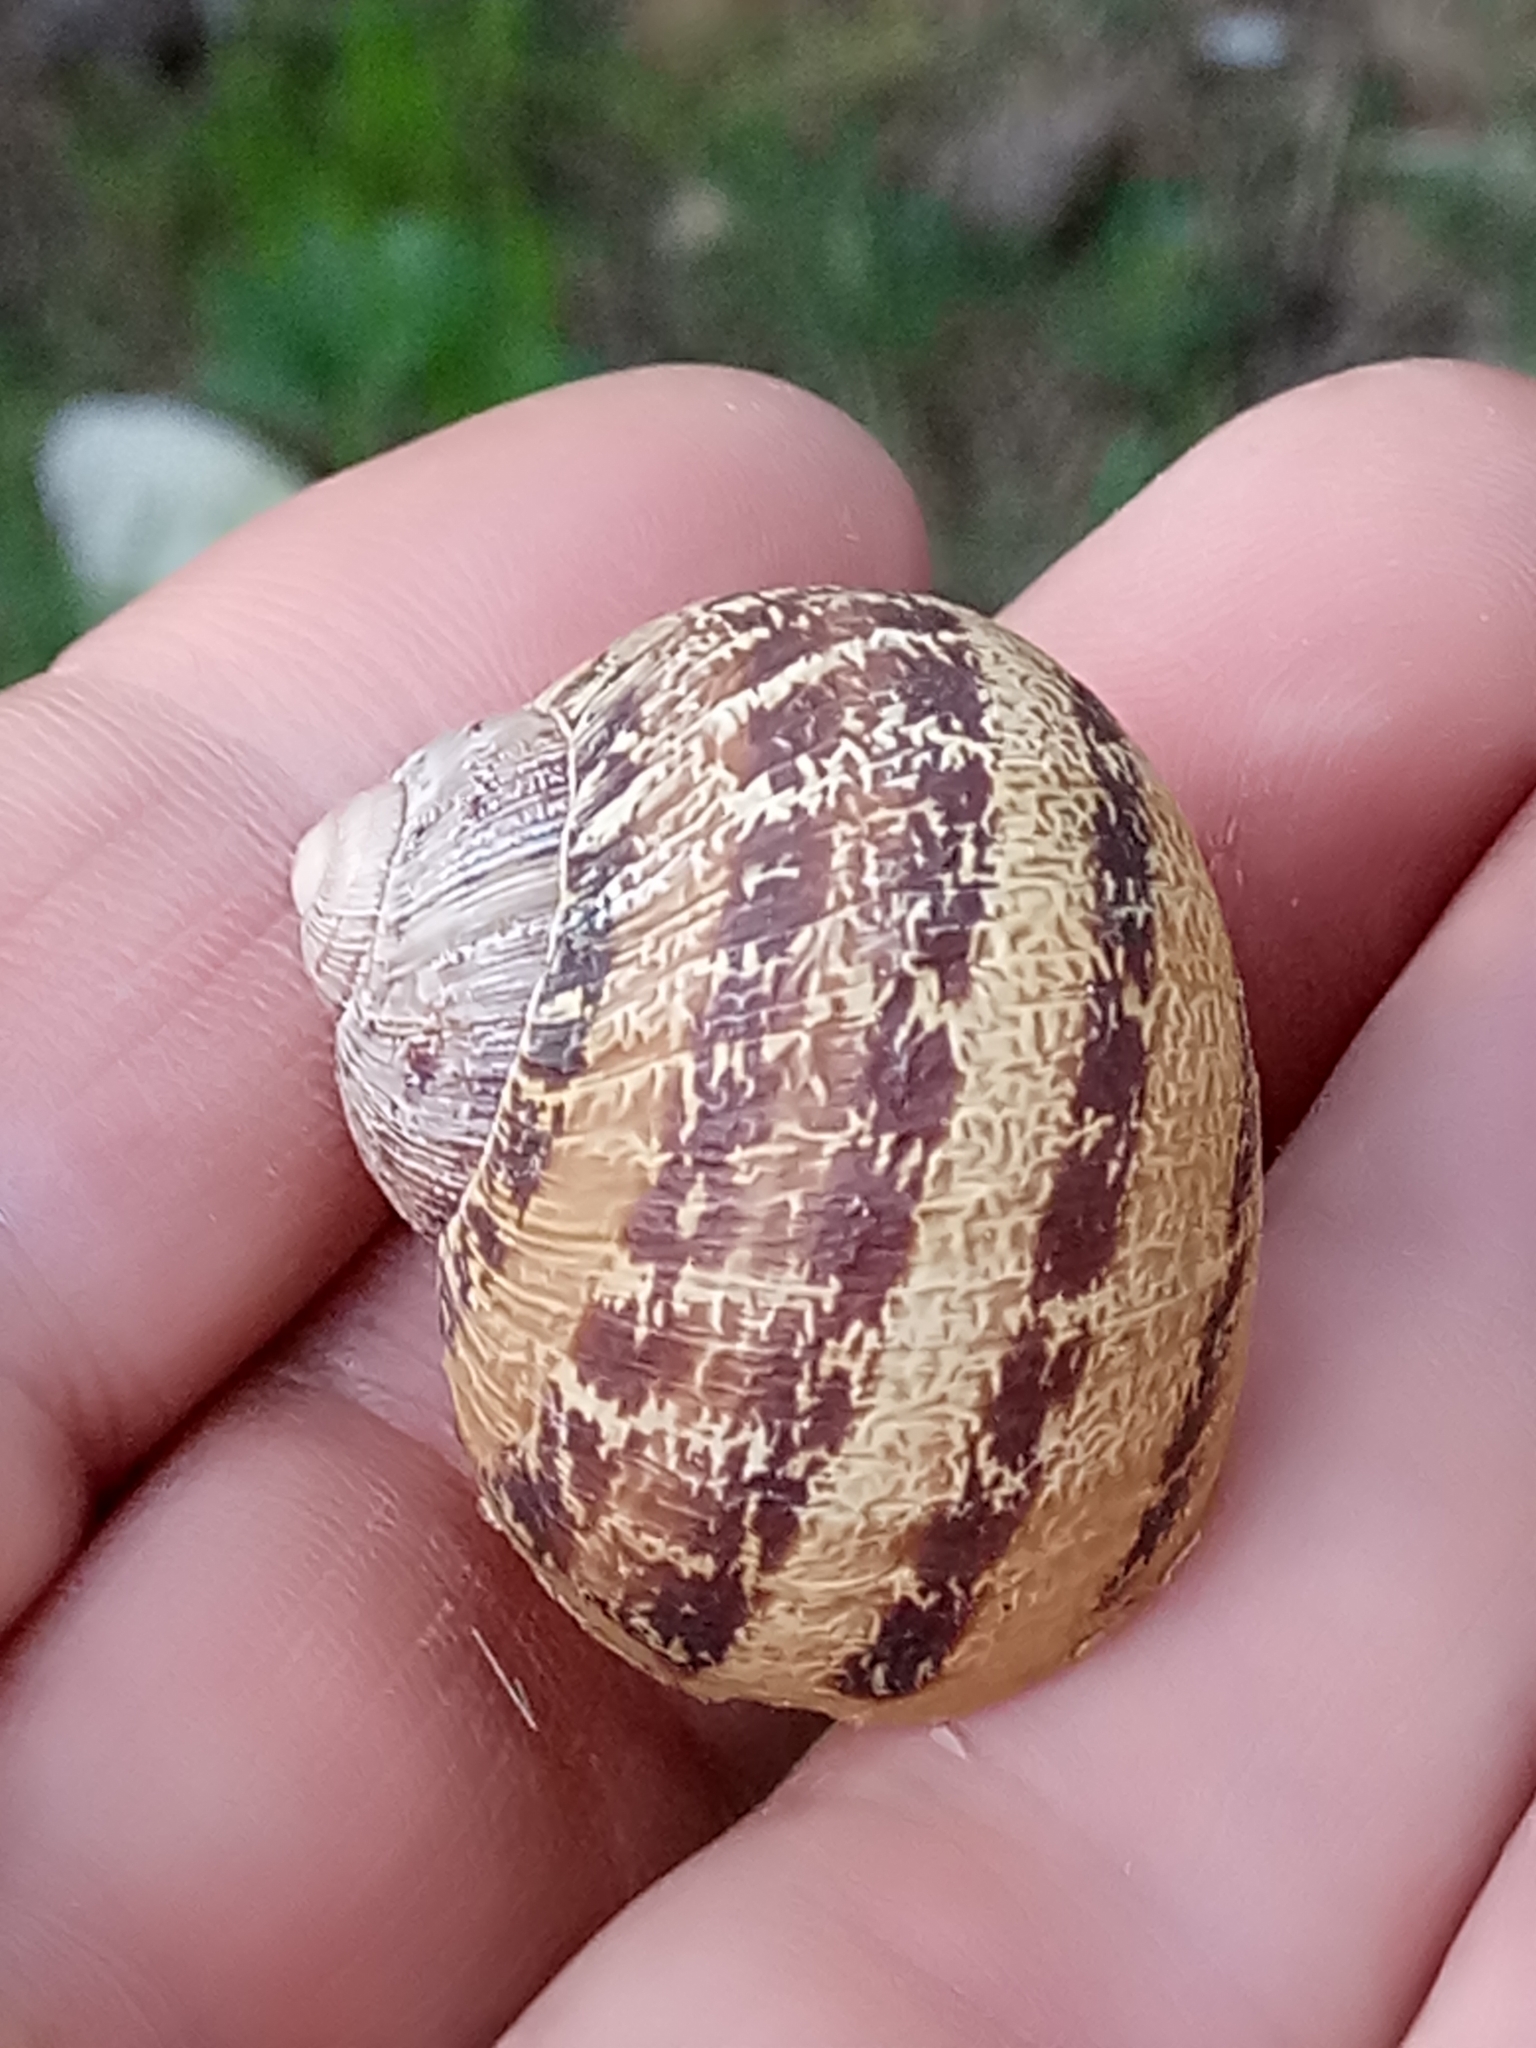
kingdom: Animalia
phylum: Mollusca
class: Gastropoda
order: Stylommatophora
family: Helicidae
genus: Cornu
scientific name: Cornu aspersum
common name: Brown garden snail
